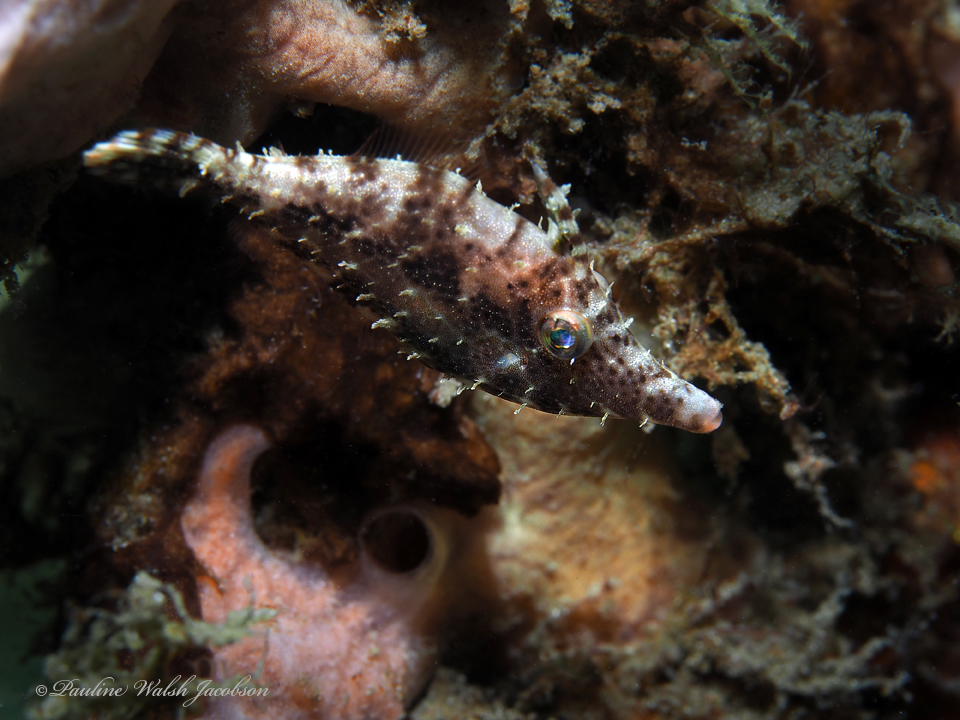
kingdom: Animalia
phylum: Chordata
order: Tetraodontiformes
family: Monacanthidae
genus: Monacanthus
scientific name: Monacanthus tuckeri
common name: Slender filefish
